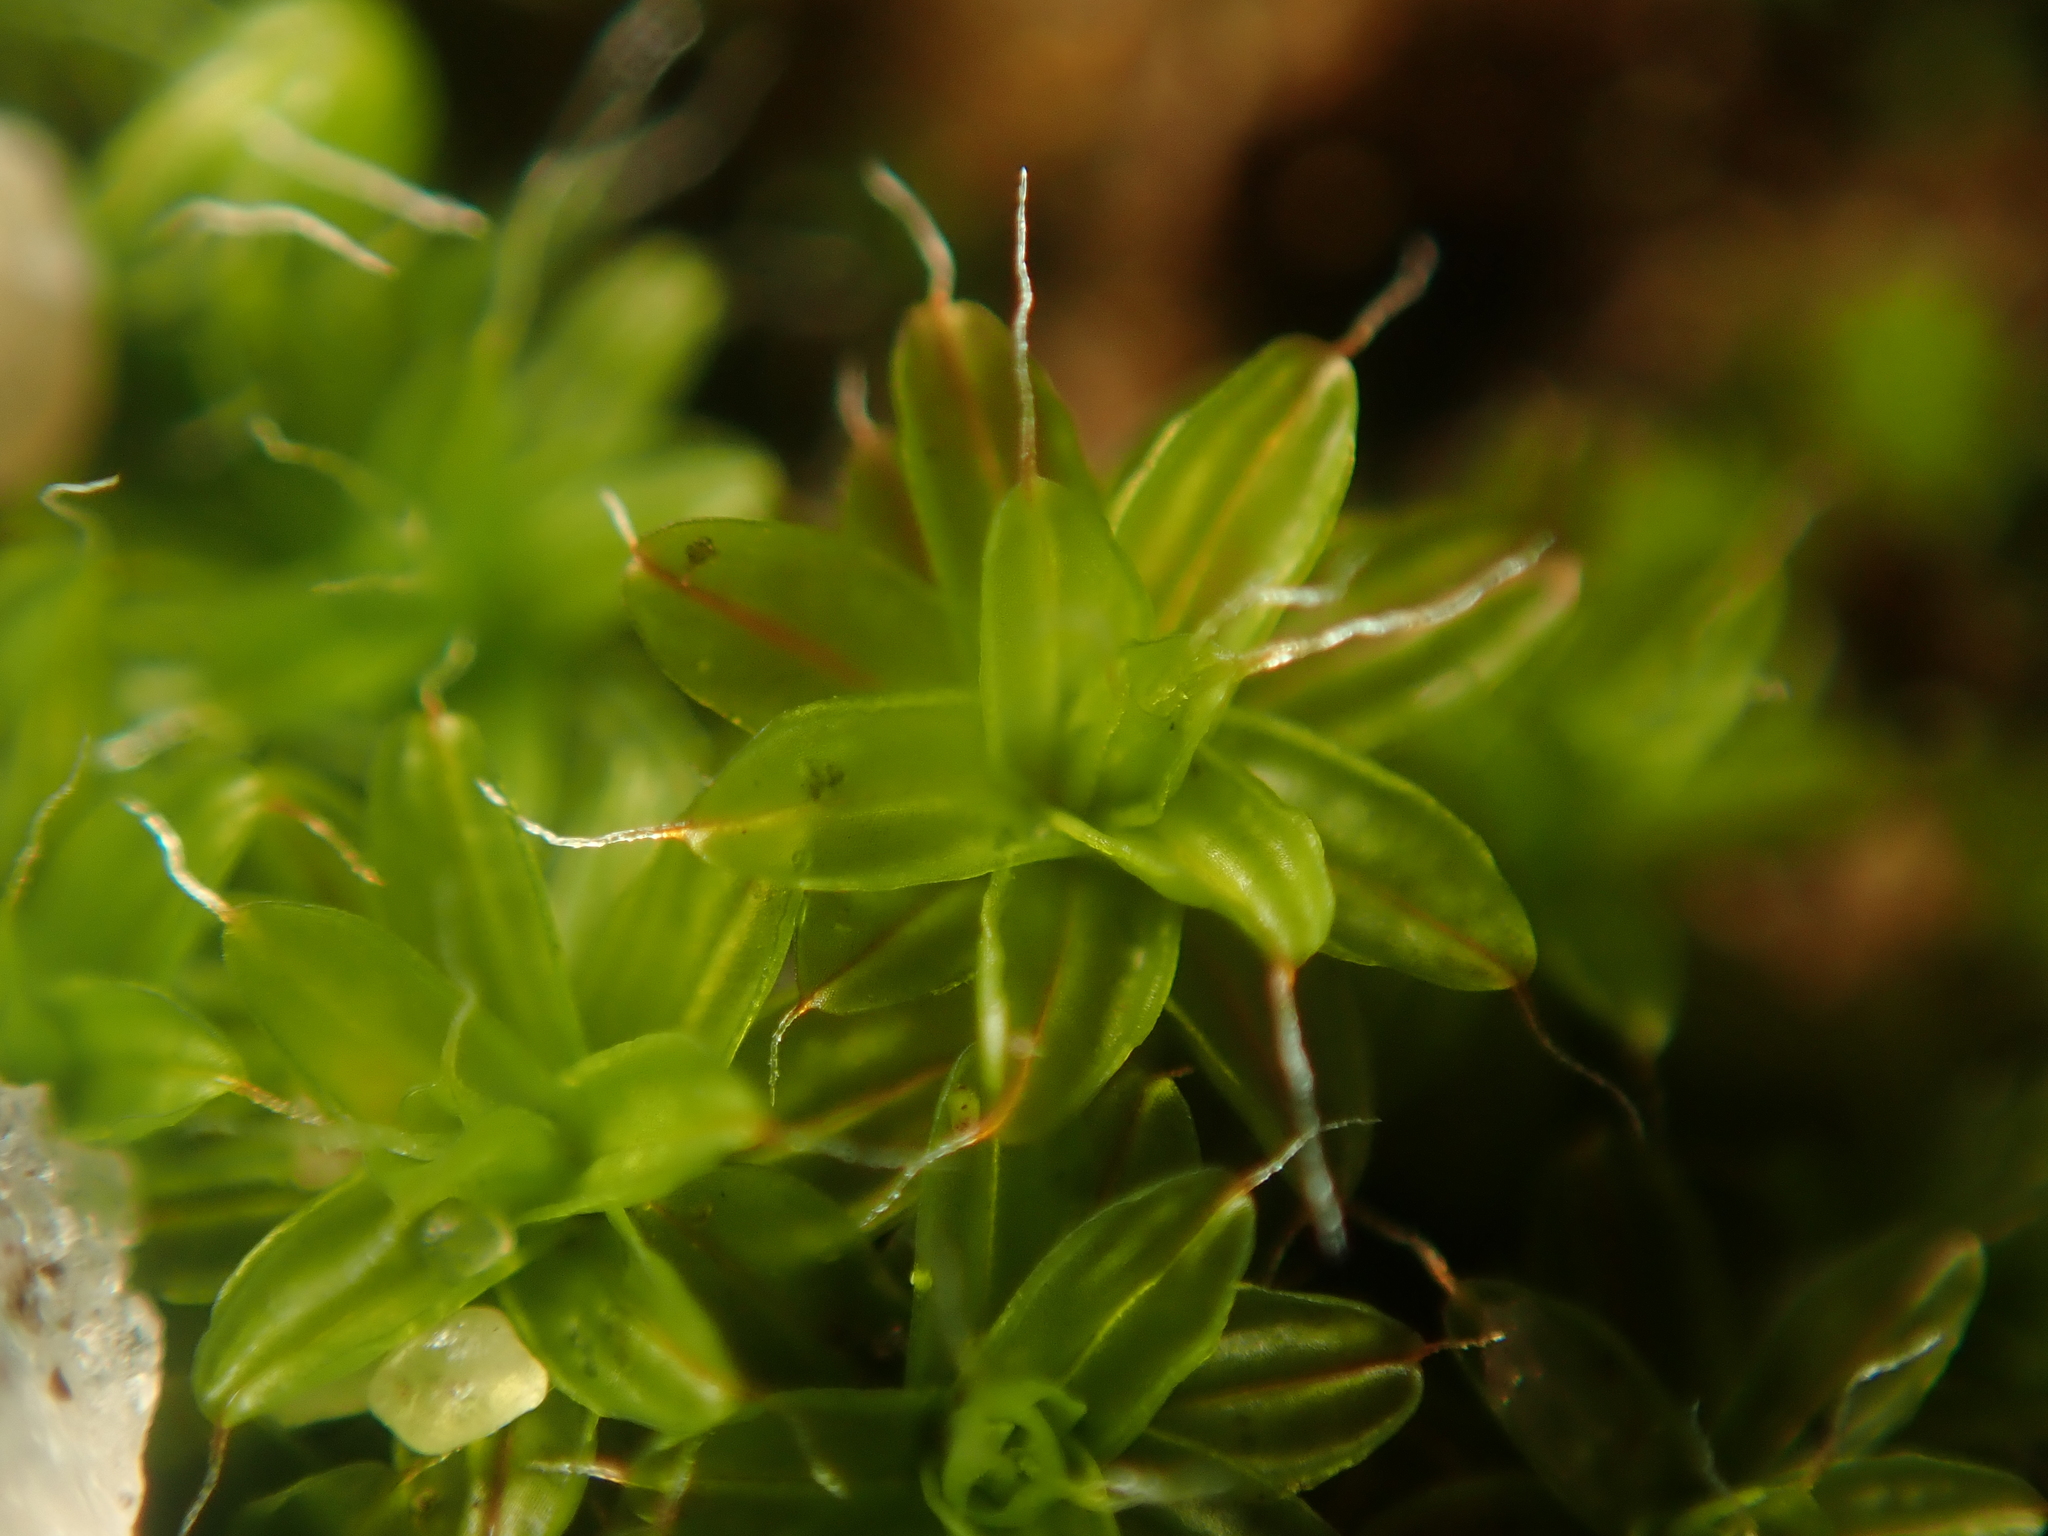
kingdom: Plantae
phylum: Bryophyta
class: Bryopsida
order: Pottiales
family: Pottiaceae
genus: Syntrichia
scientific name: Syntrichia ruralis
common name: Sidewalk screw moss
